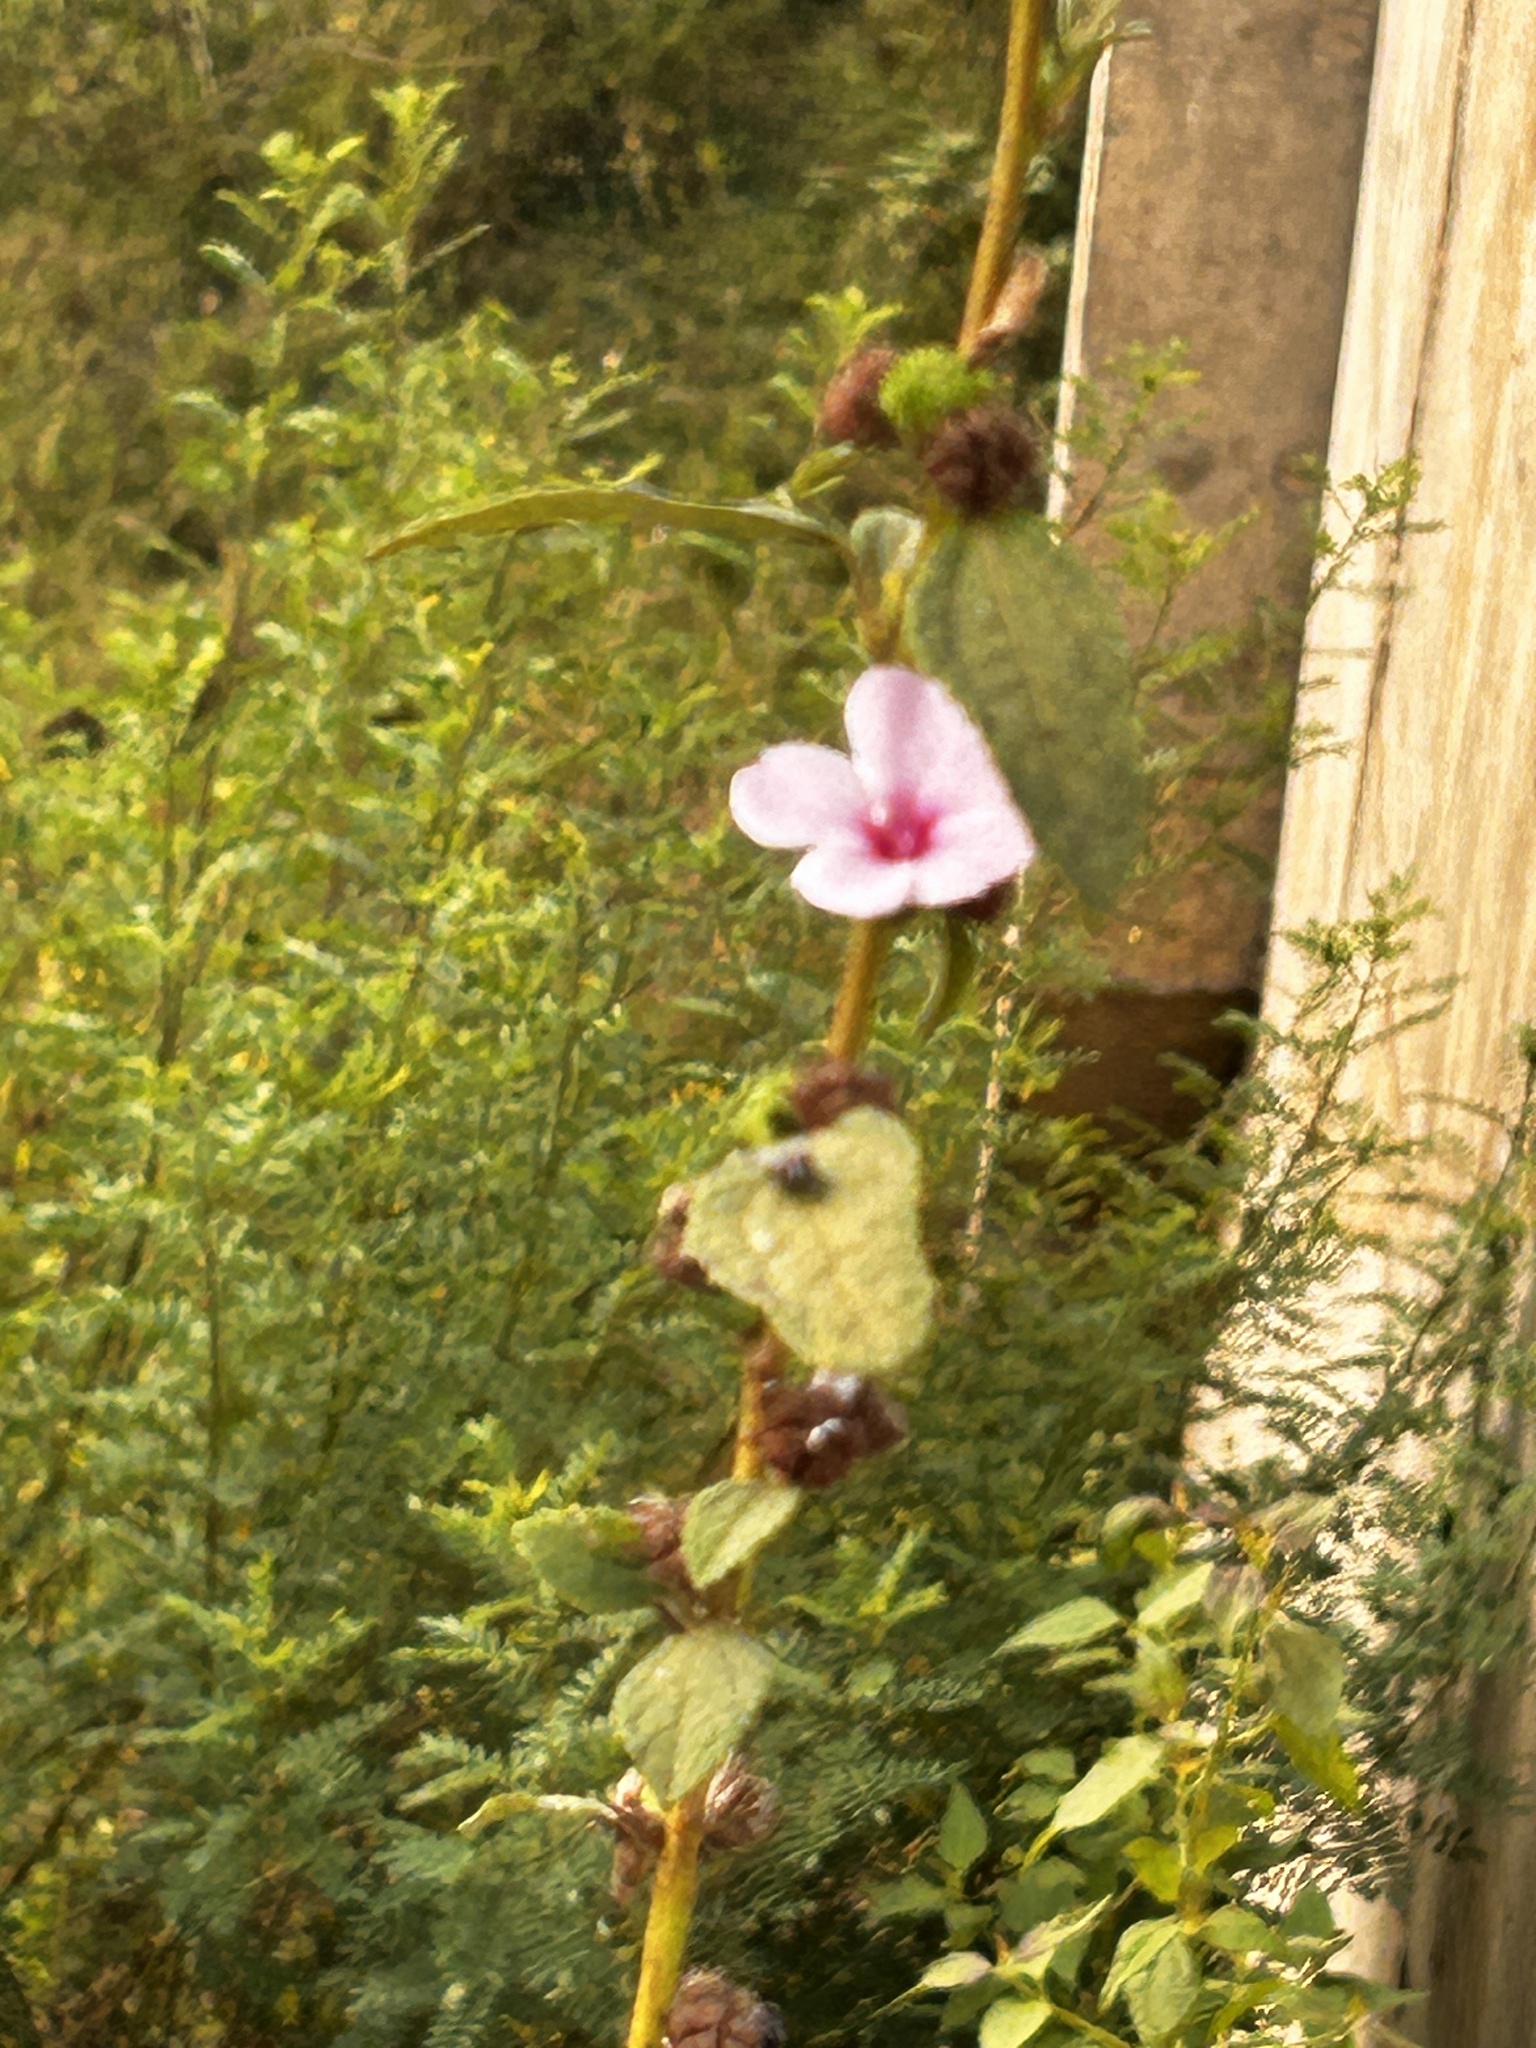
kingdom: Plantae
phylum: Tracheophyta
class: Magnoliopsida
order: Malvales
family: Malvaceae
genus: Urena
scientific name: Urena lobata
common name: Caesarweed
